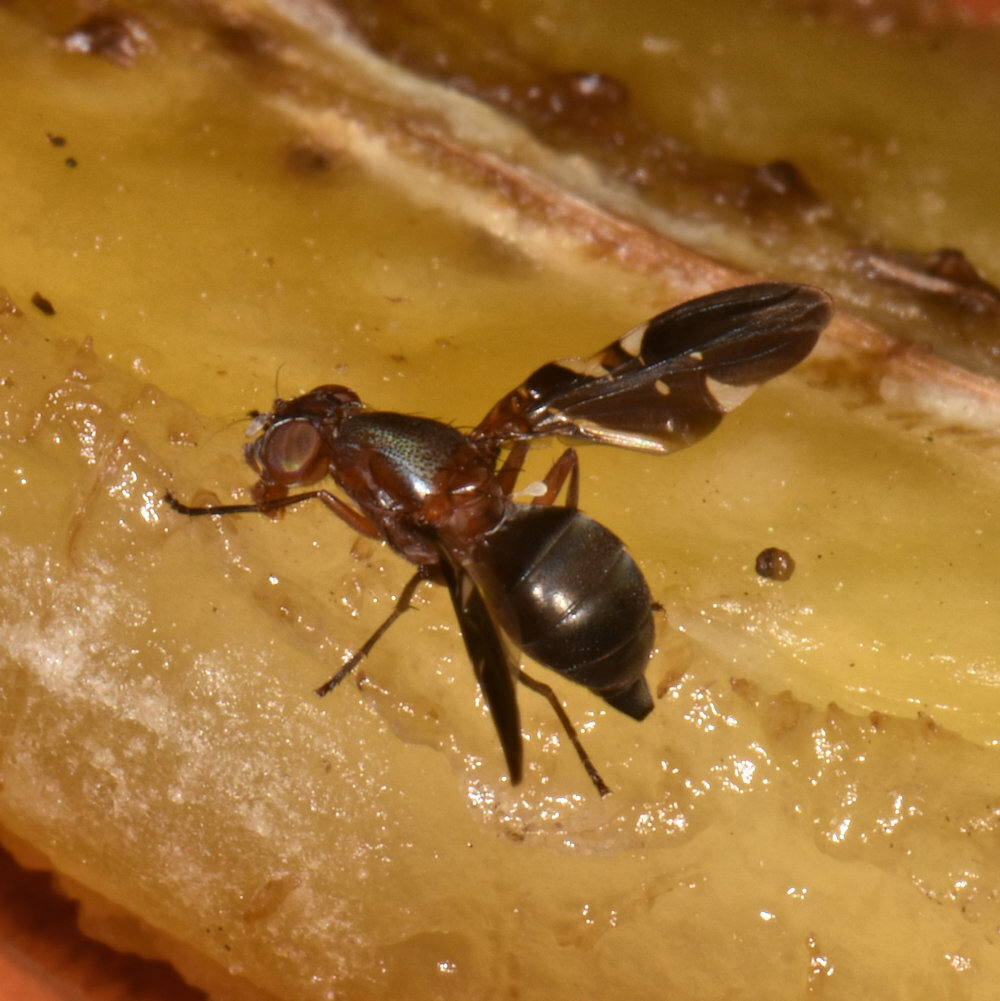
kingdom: Animalia
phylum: Arthropoda
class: Insecta
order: Diptera
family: Ulidiidae
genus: Delphinia
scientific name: Delphinia picta
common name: Common picture-winged fly
